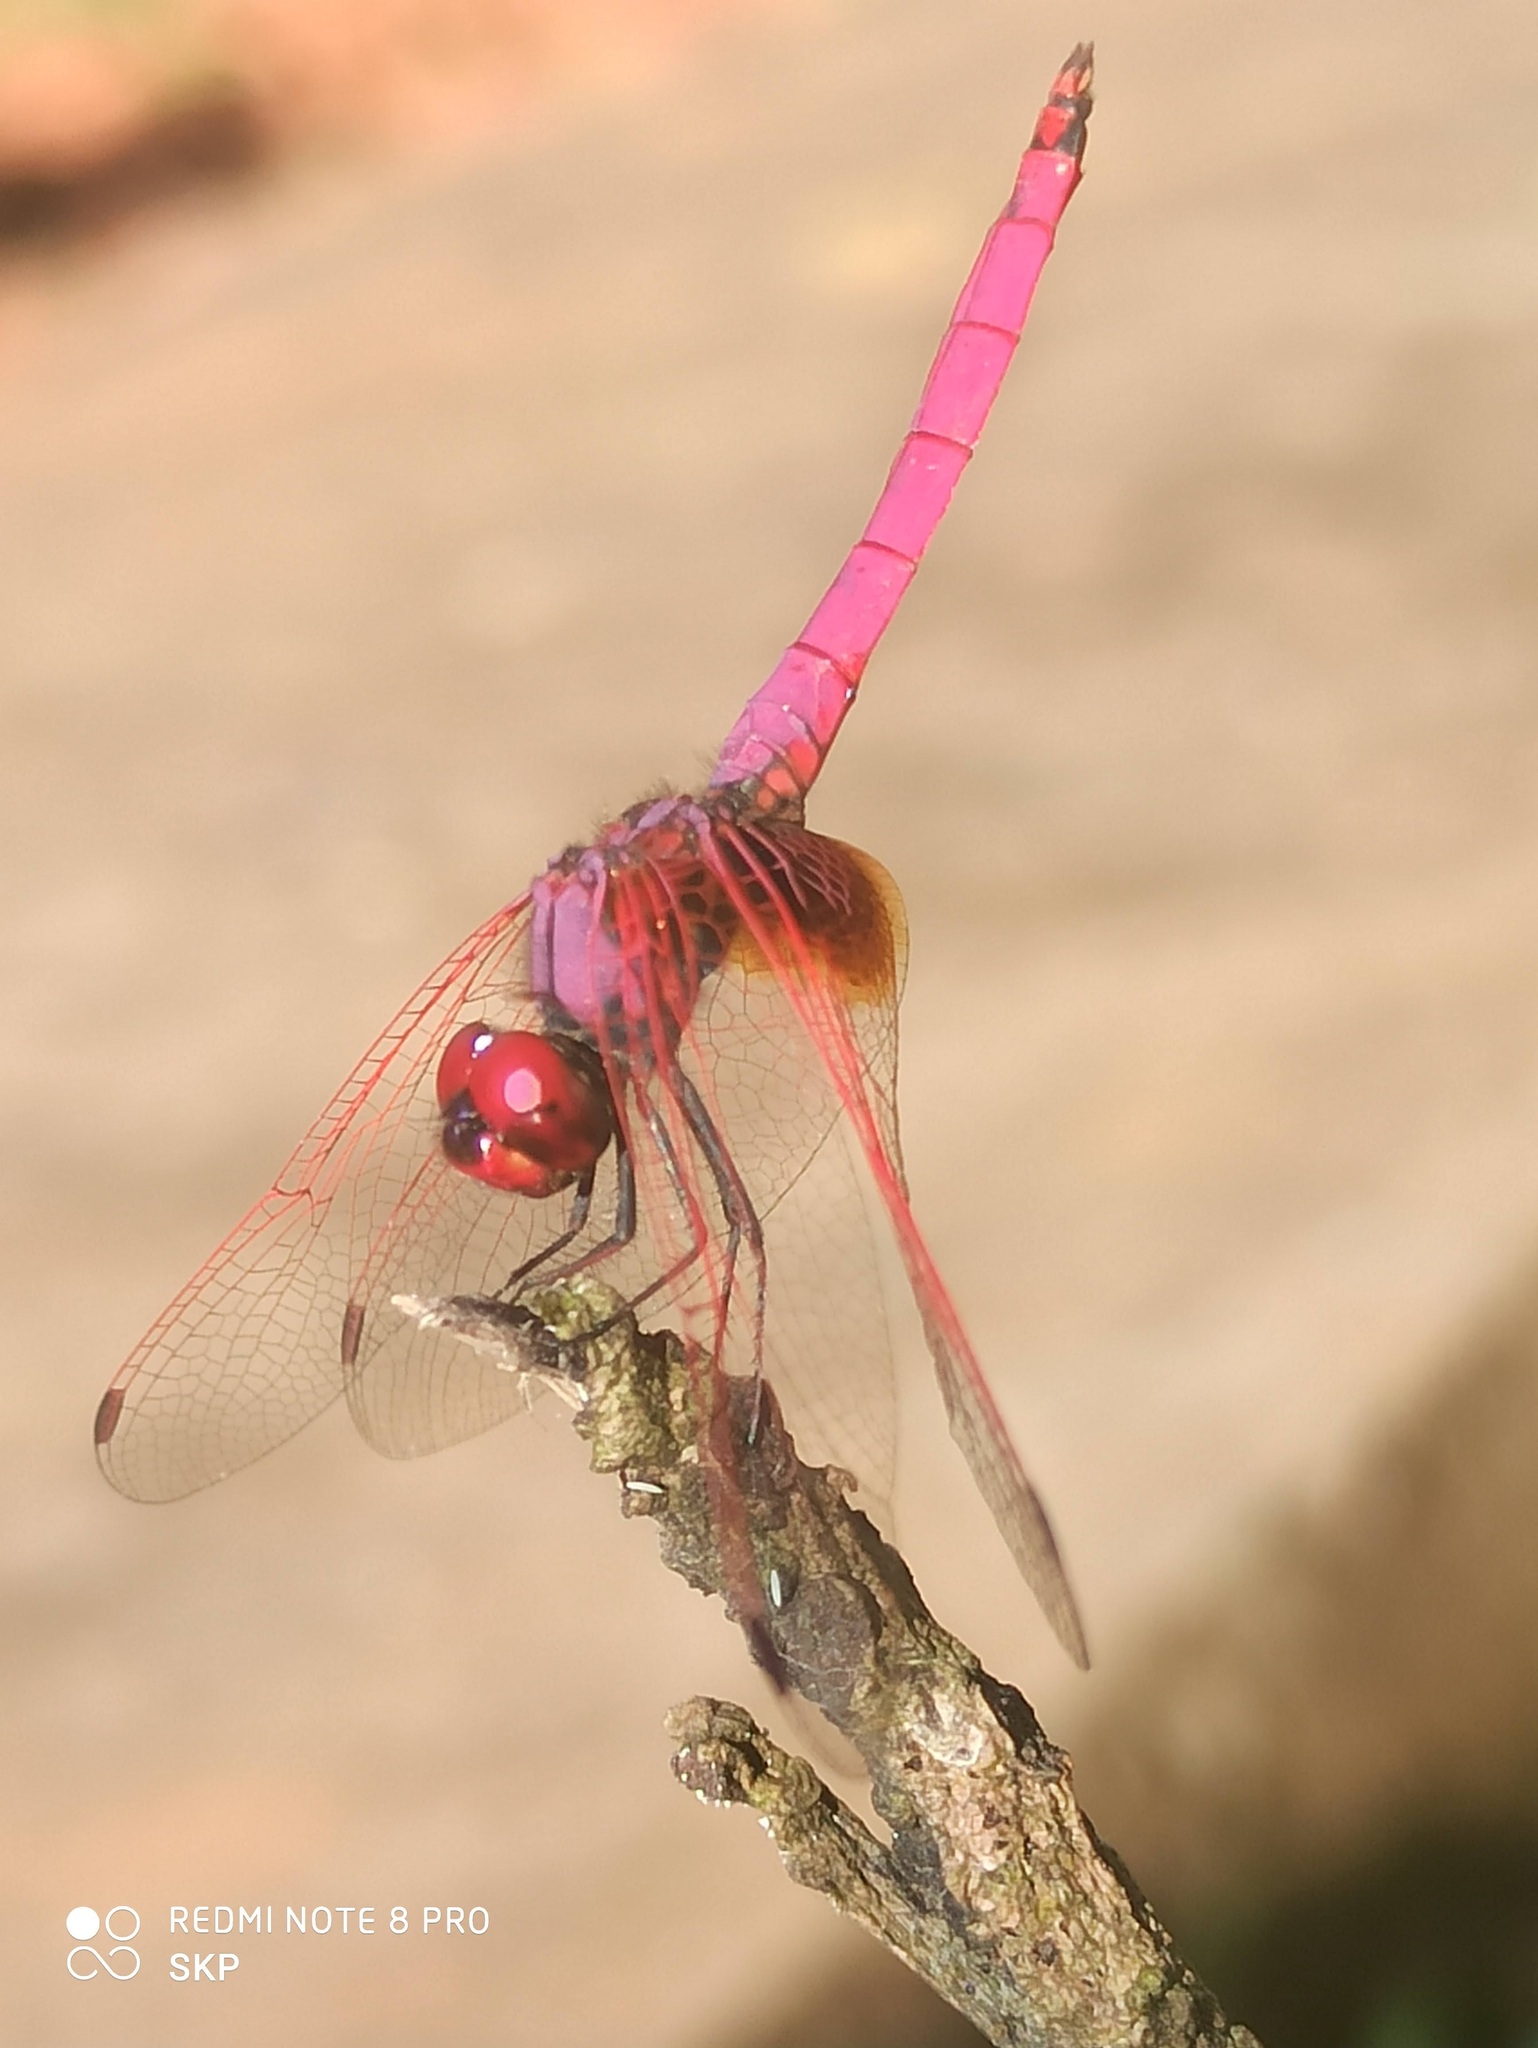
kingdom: Animalia
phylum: Arthropoda
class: Insecta
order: Odonata
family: Libellulidae
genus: Trithemis
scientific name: Trithemis aurora
